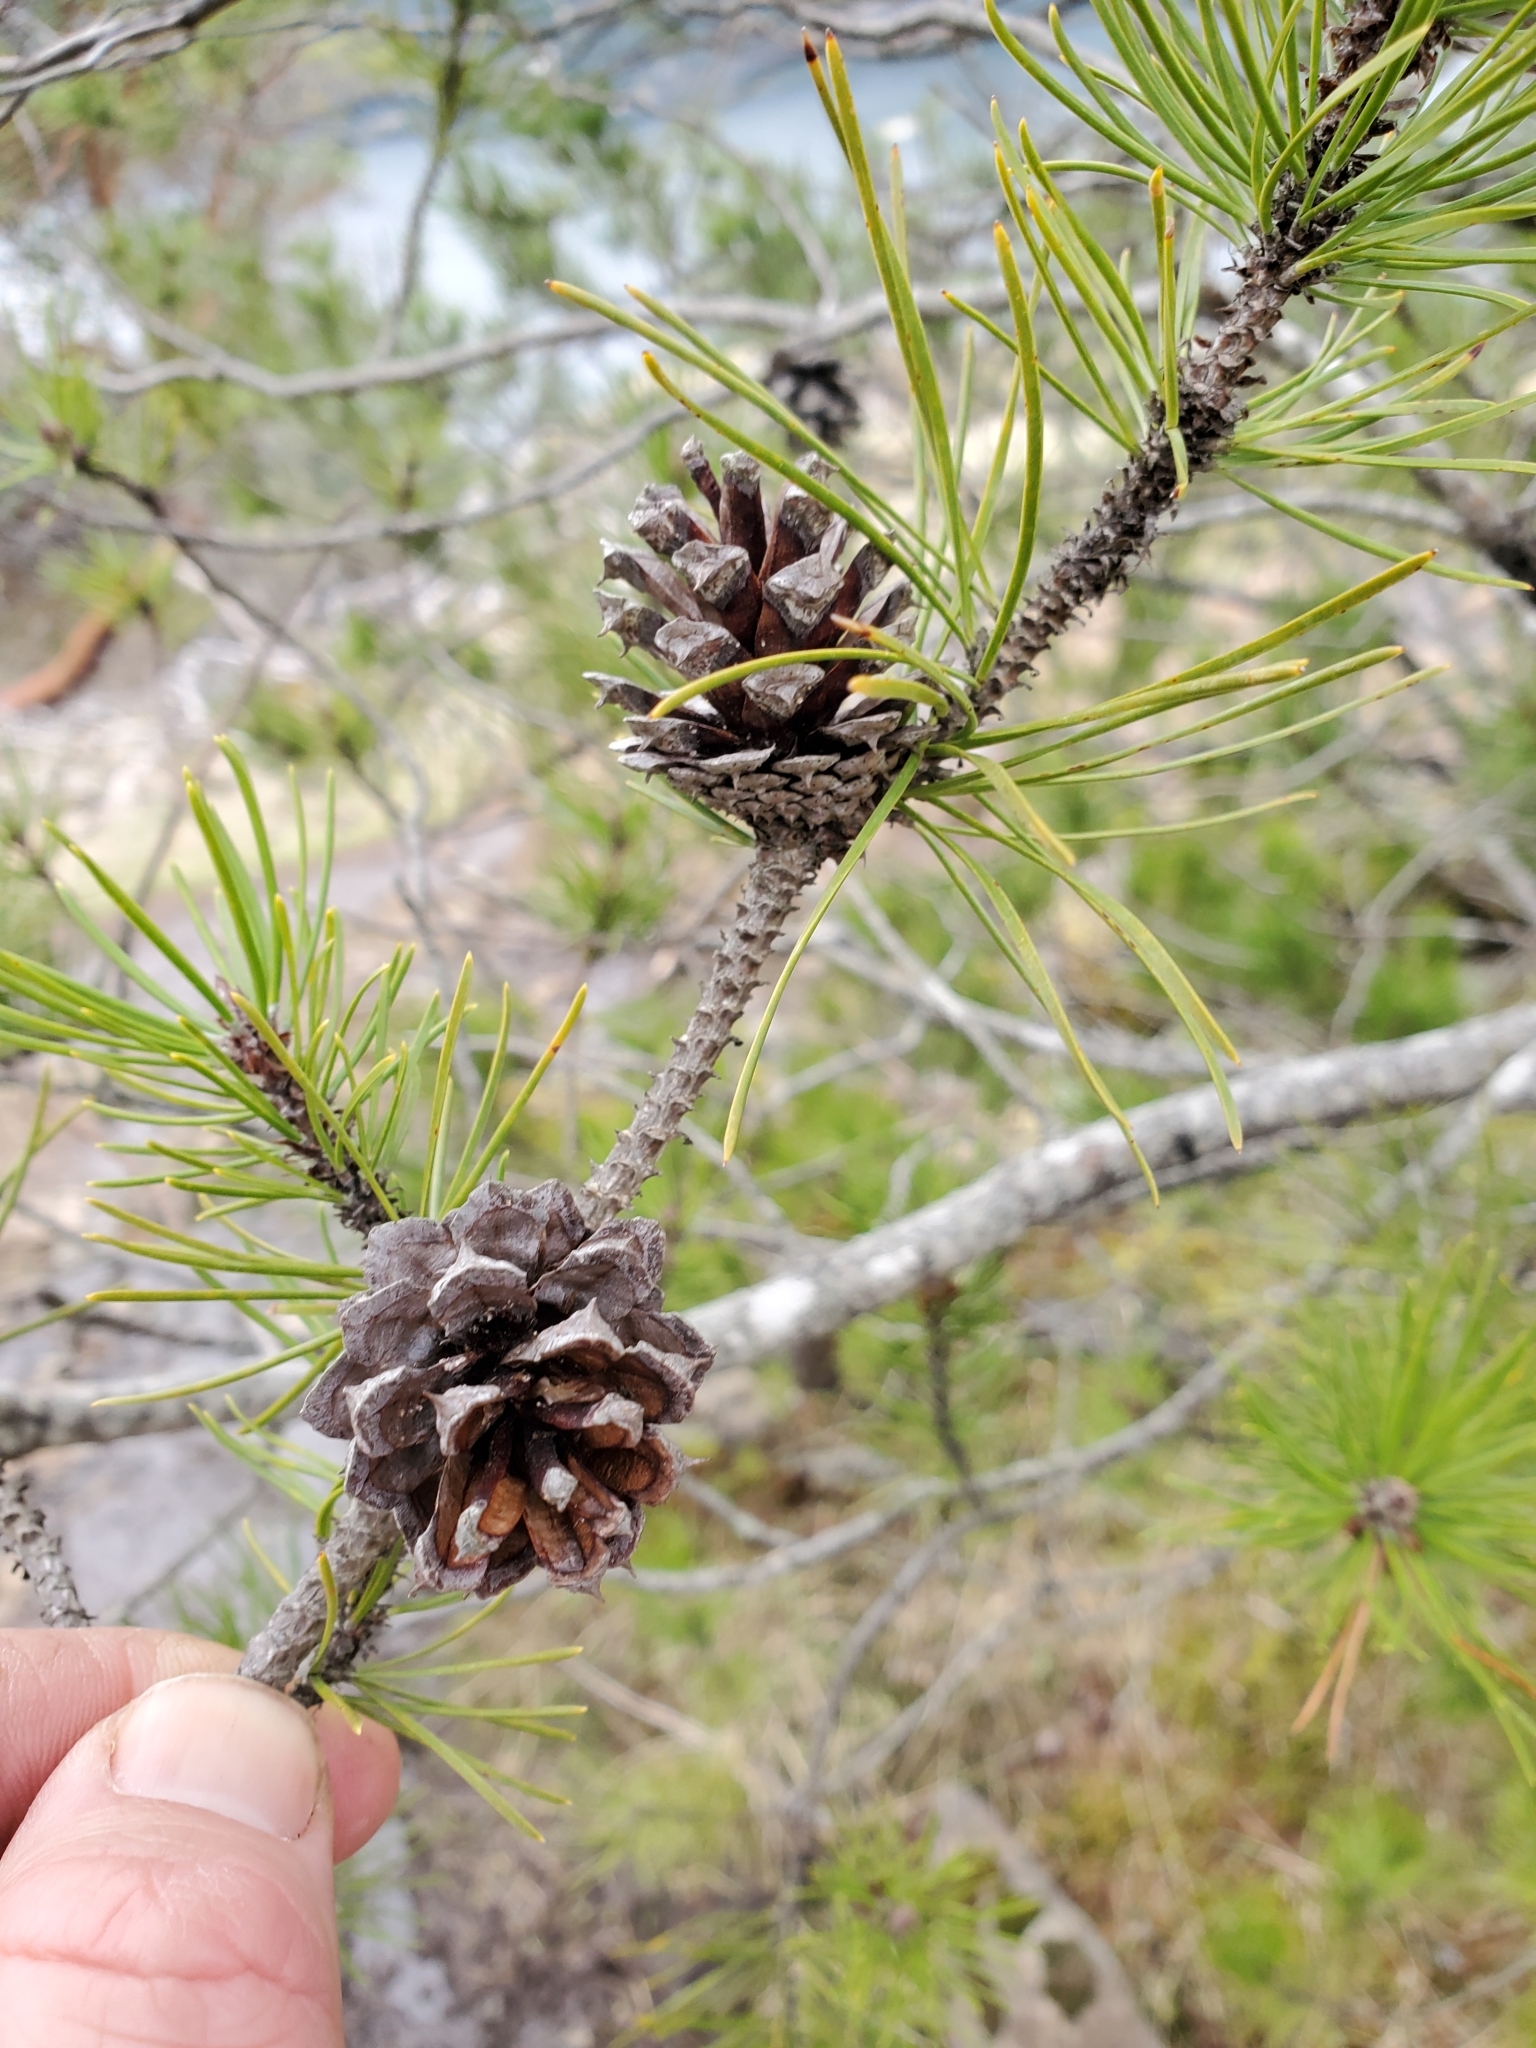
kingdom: Plantae
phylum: Tracheophyta
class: Pinopsida
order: Pinales
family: Pinaceae
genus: Pinus
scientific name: Pinus contorta
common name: Lodgepole pine
